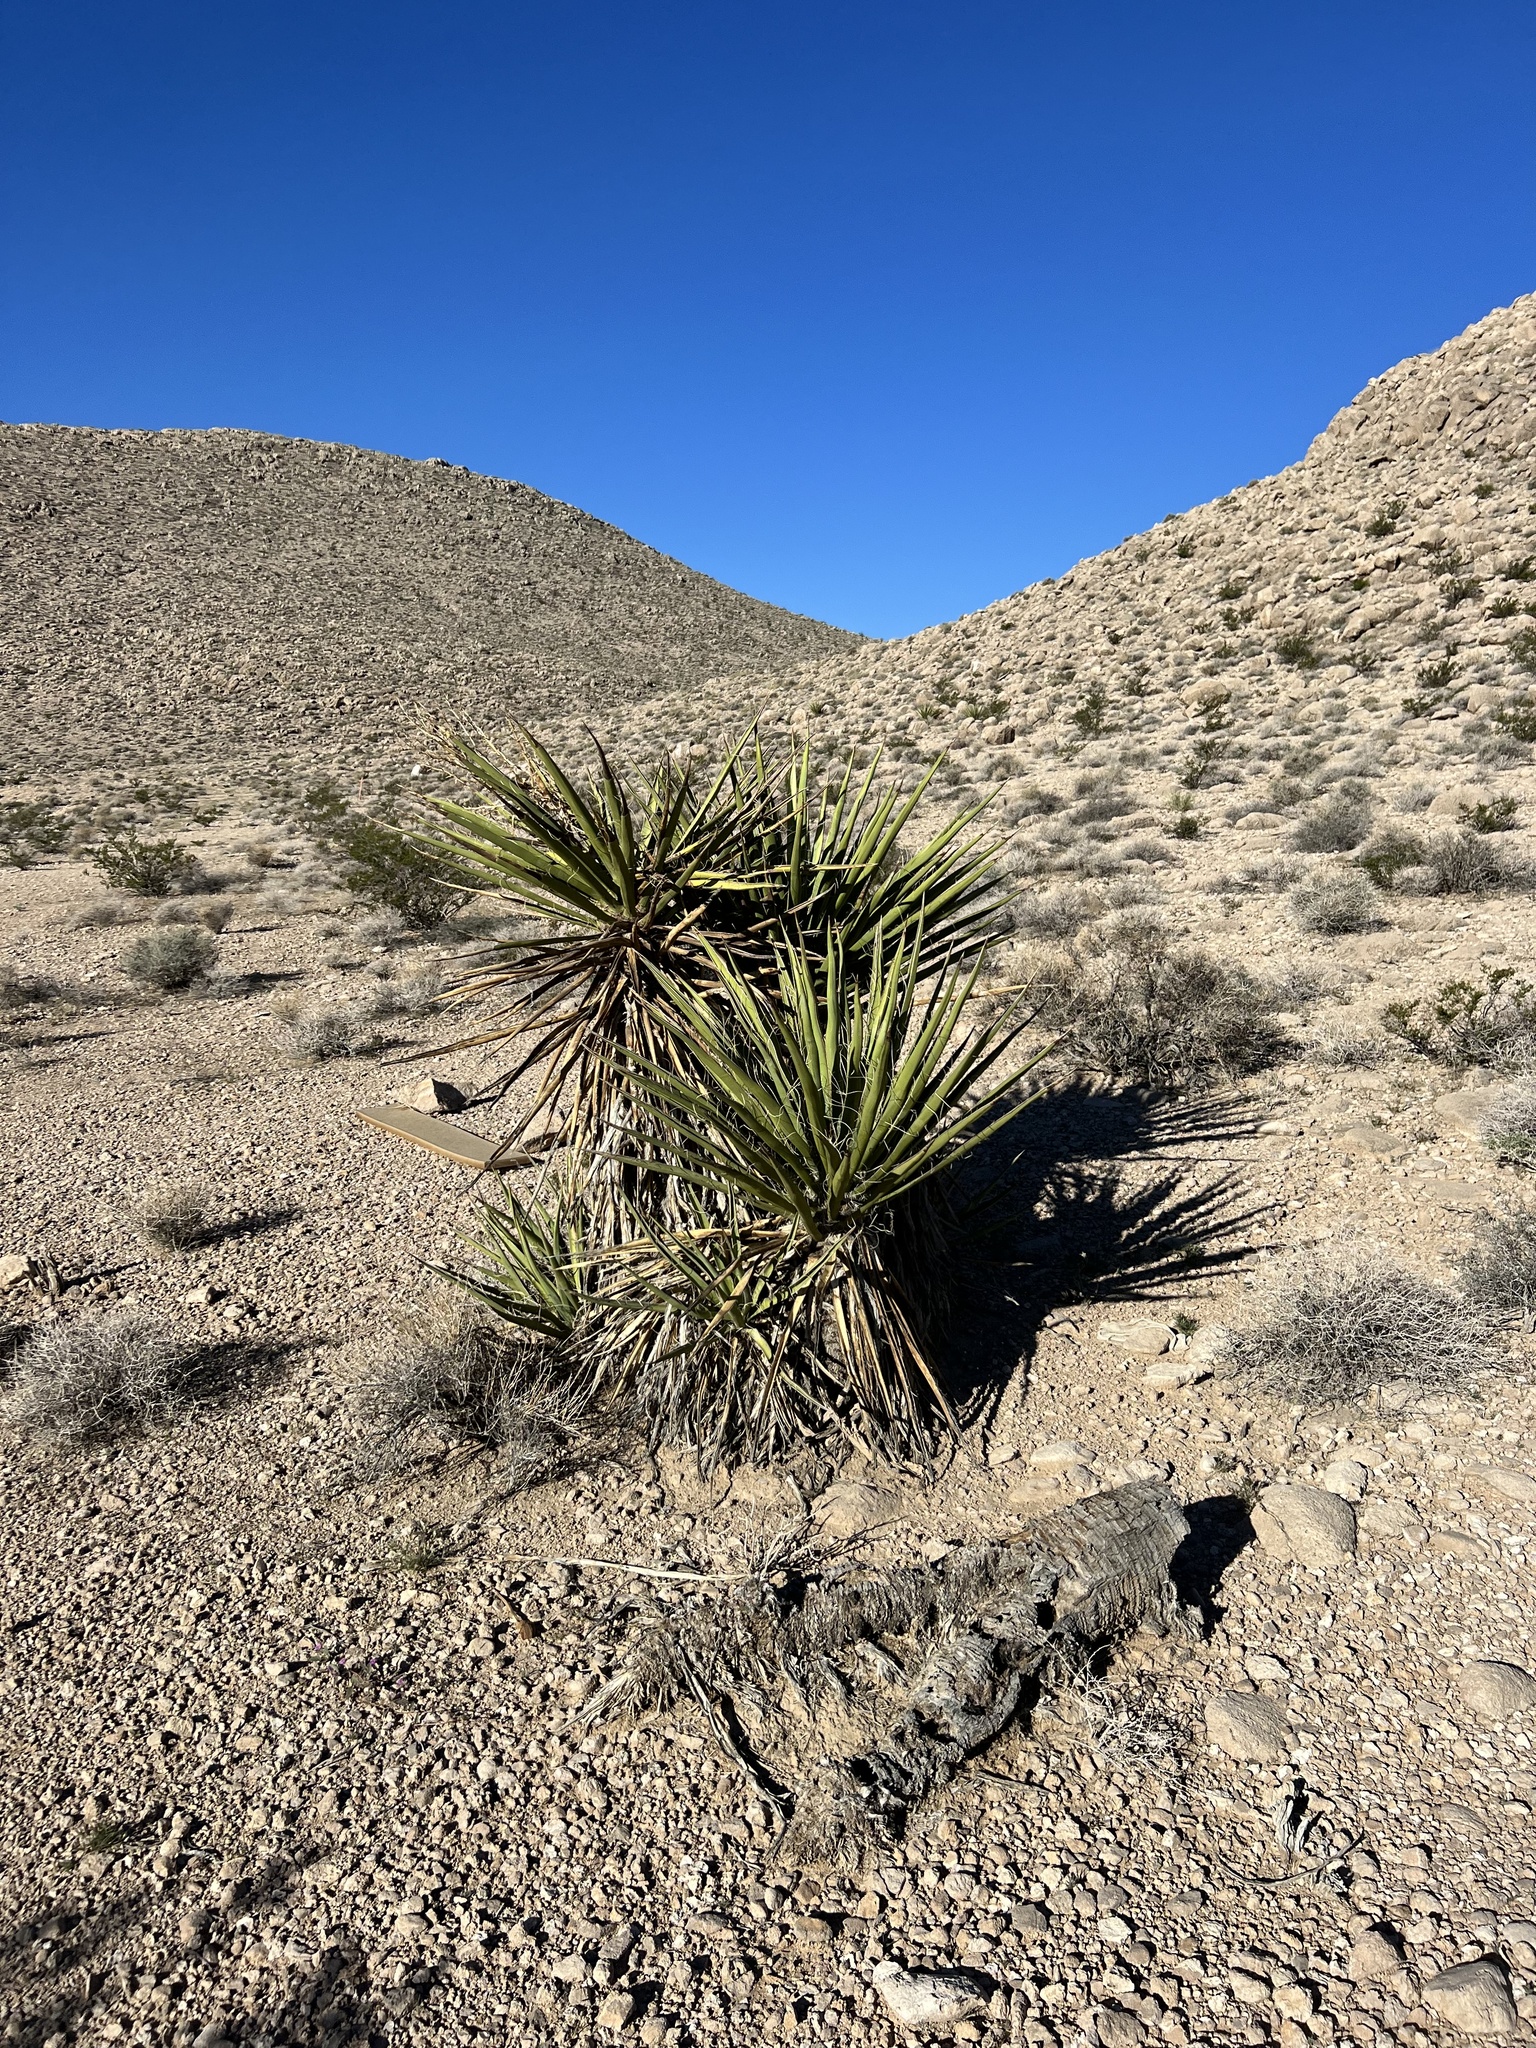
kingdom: Plantae
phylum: Tracheophyta
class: Liliopsida
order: Asparagales
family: Asparagaceae
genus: Yucca
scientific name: Yucca schidigera
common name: Mojave yucca
